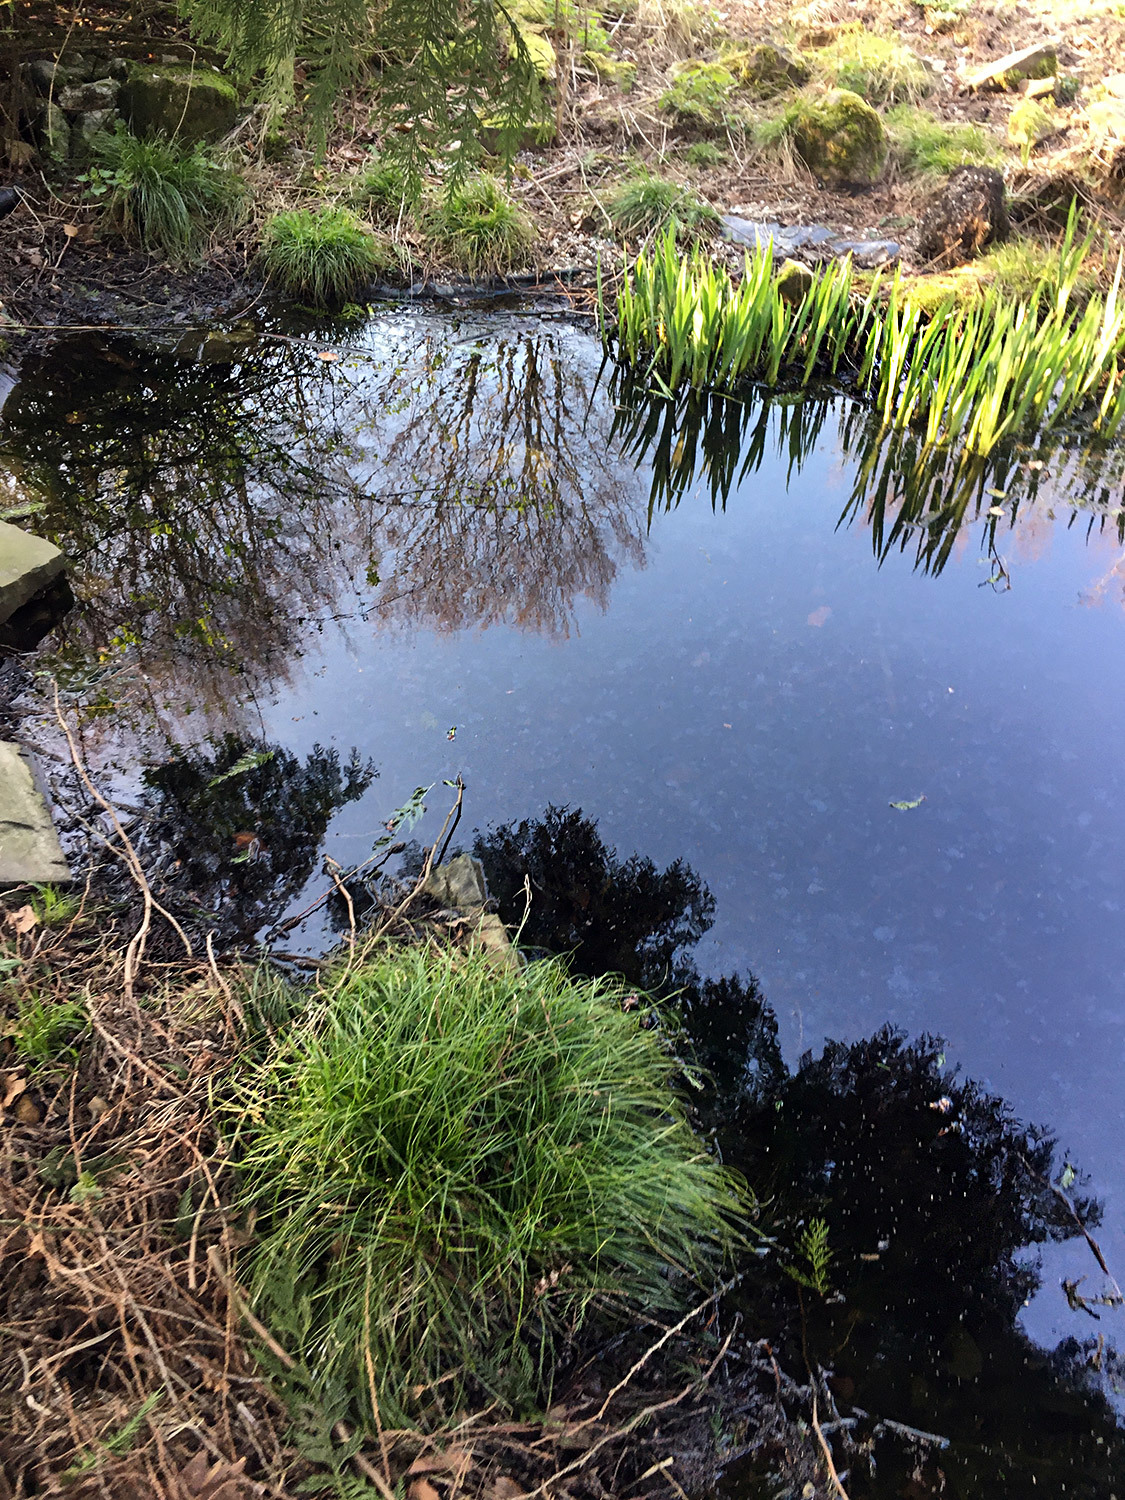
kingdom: Animalia
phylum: Chordata
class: Amphibia
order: Caudata
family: Salamandridae
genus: Ichthyosaura
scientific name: Ichthyosaura alpestris
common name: Alpine newt
